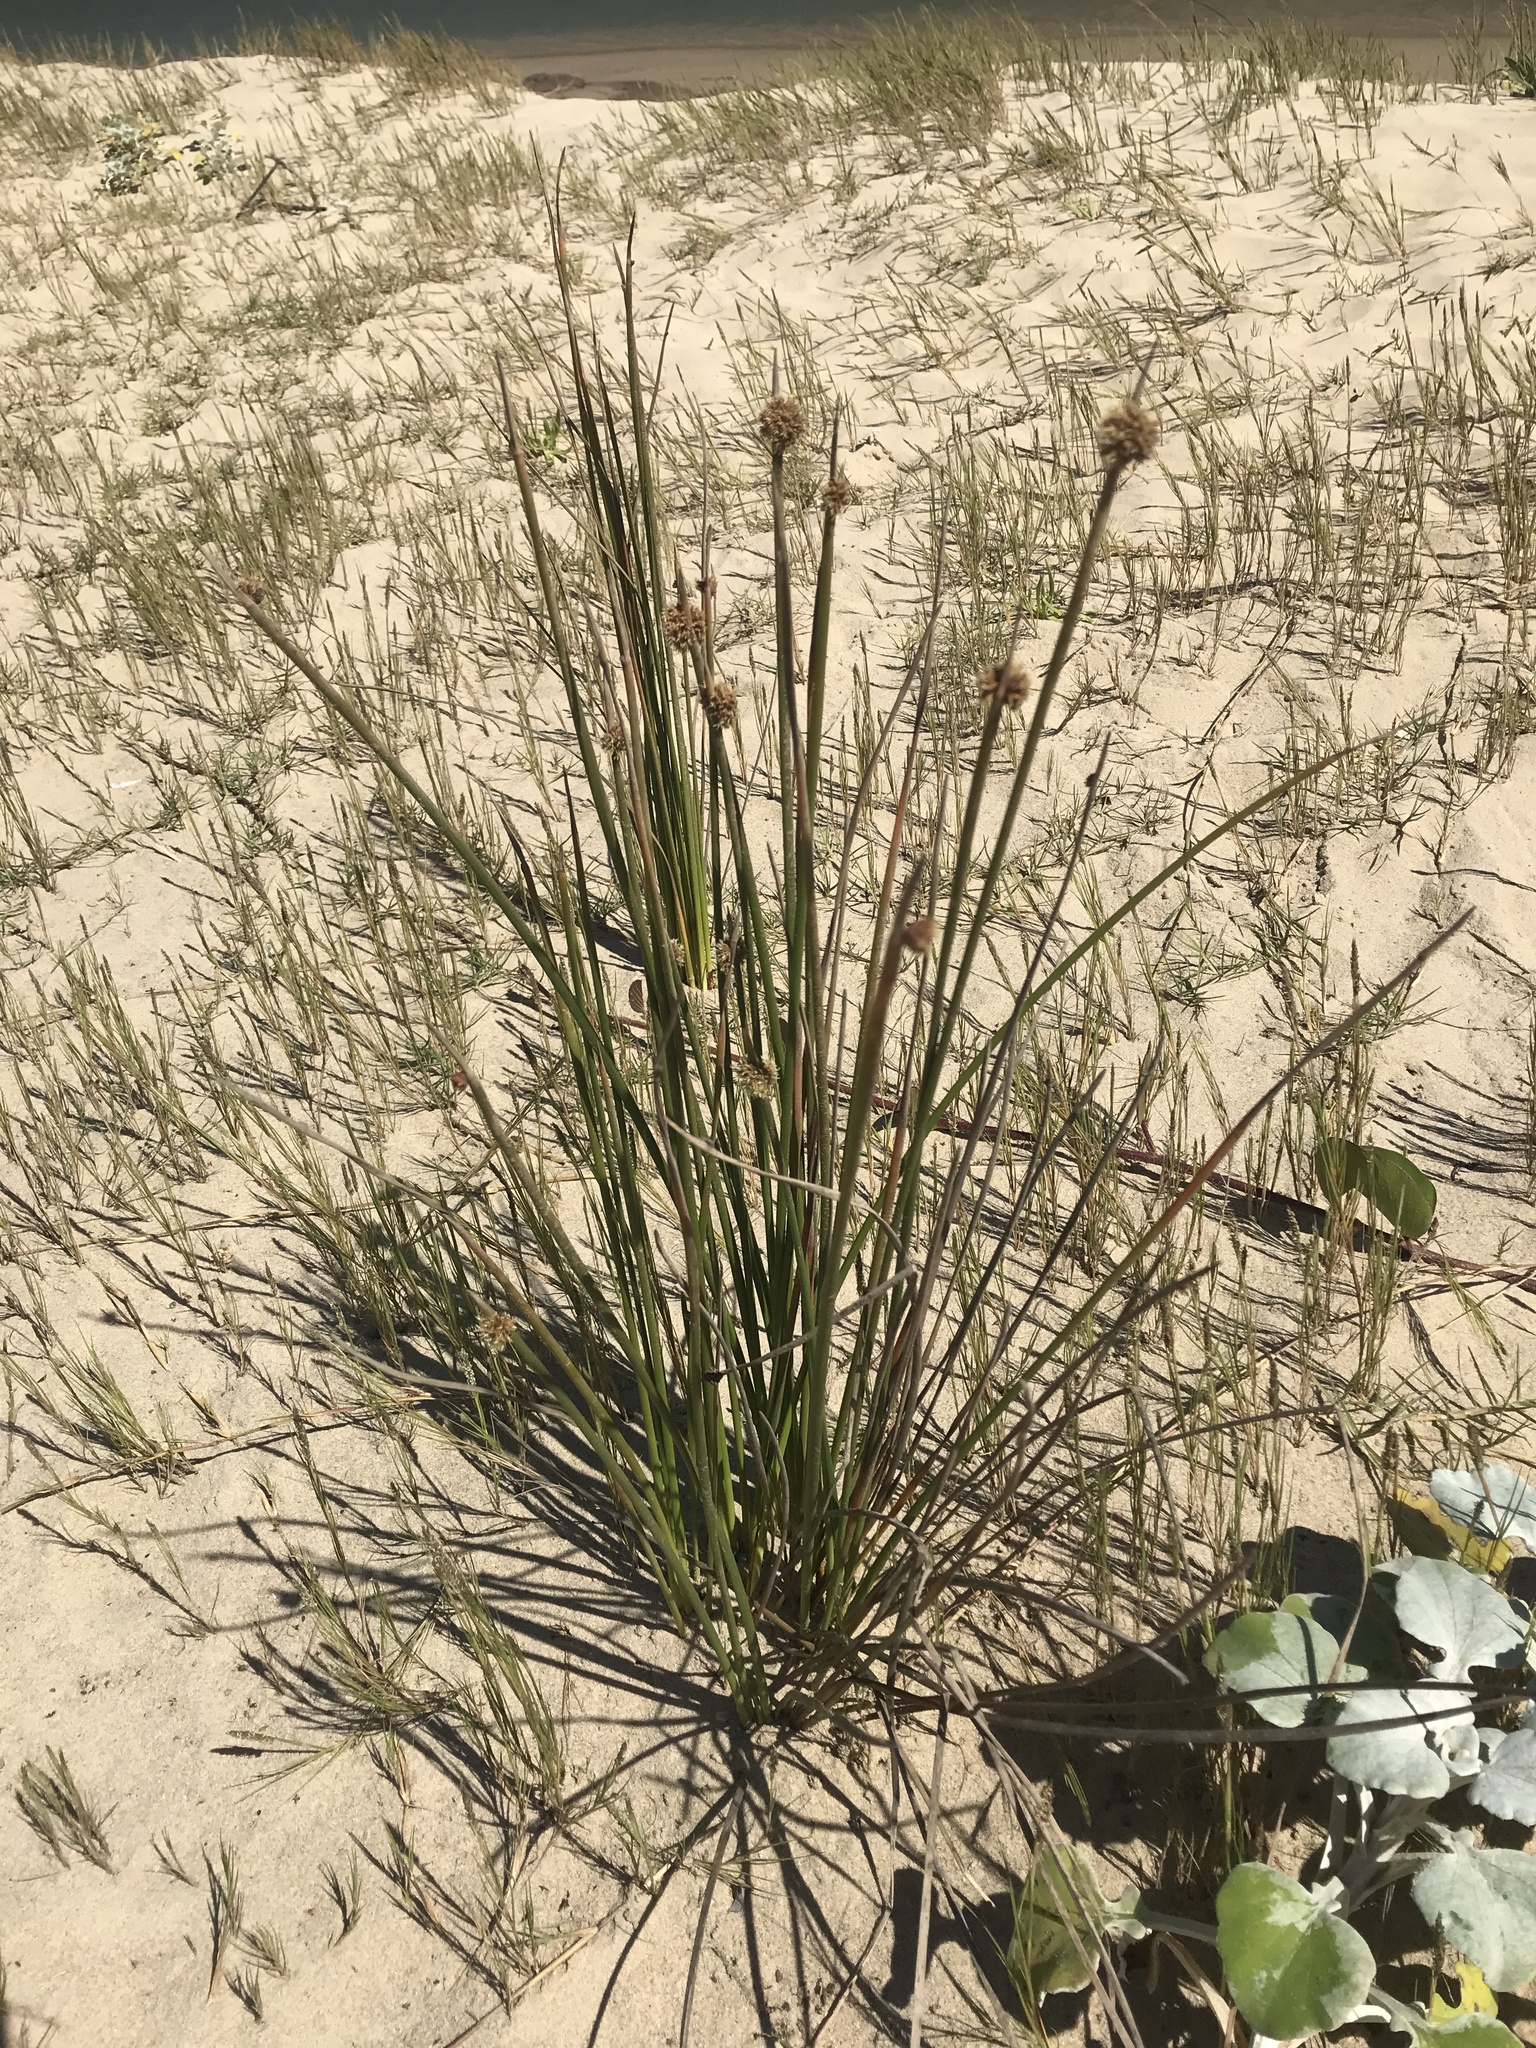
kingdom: Plantae
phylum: Tracheophyta
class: Liliopsida
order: Poales
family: Cyperaceae
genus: Ficinia
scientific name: Ficinia nodosa
